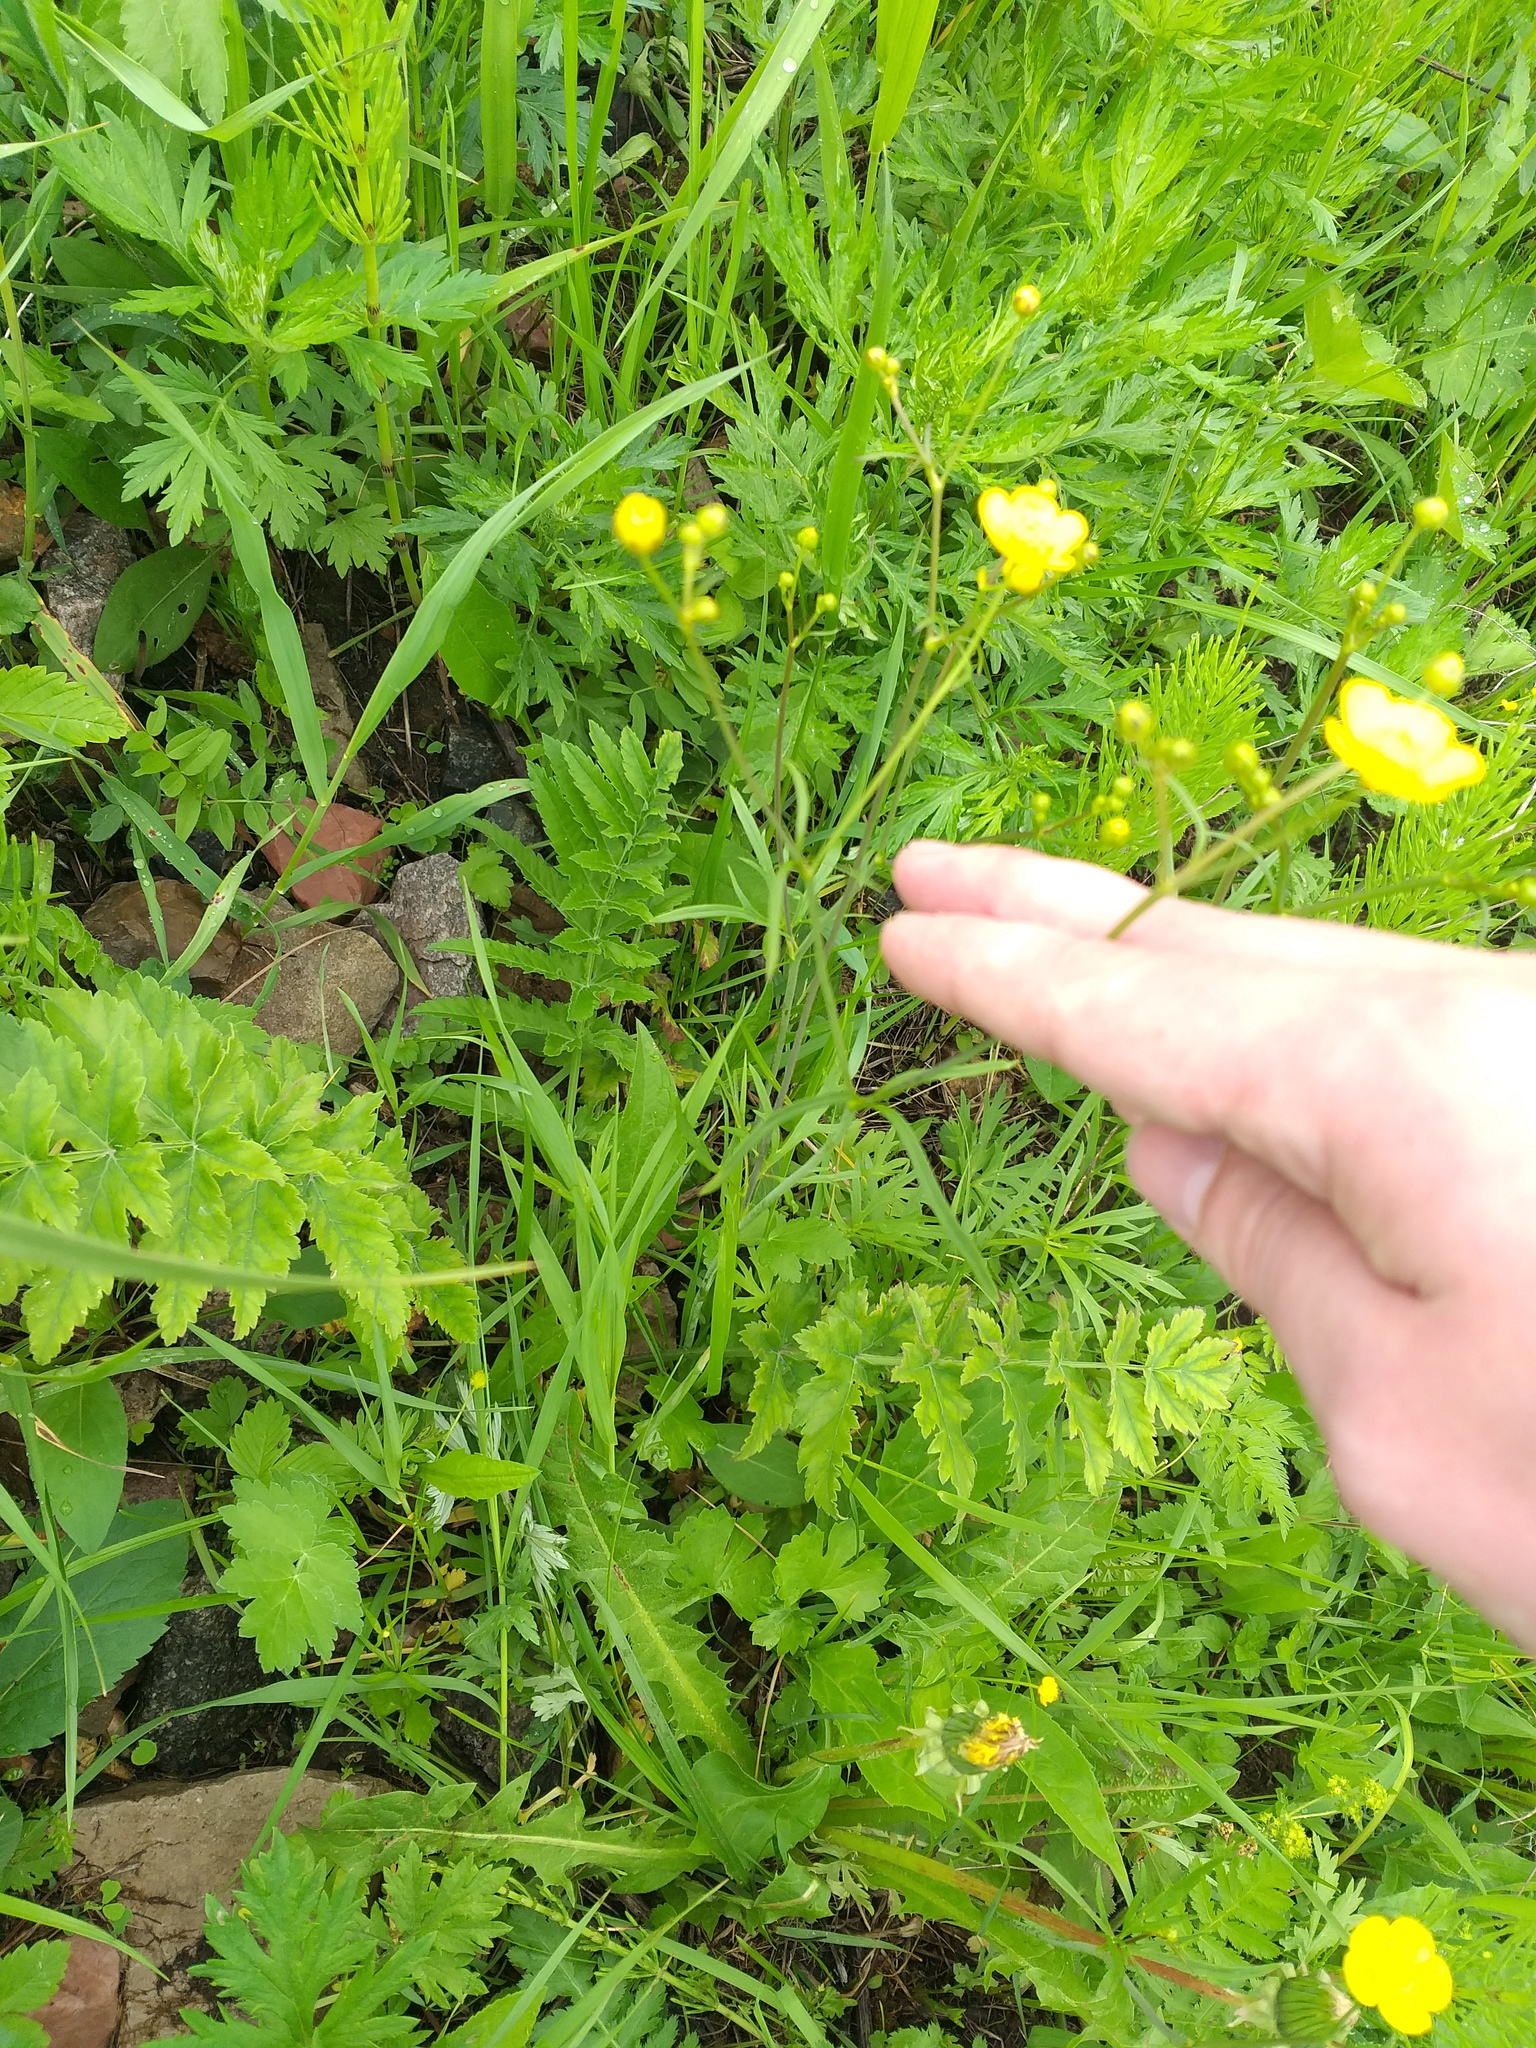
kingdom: Plantae
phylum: Tracheophyta
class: Magnoliopsida
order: Ranunculales
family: Ranunculaceae
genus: Ranunculus
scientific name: Ranunculus acris
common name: Meadow buttercup
